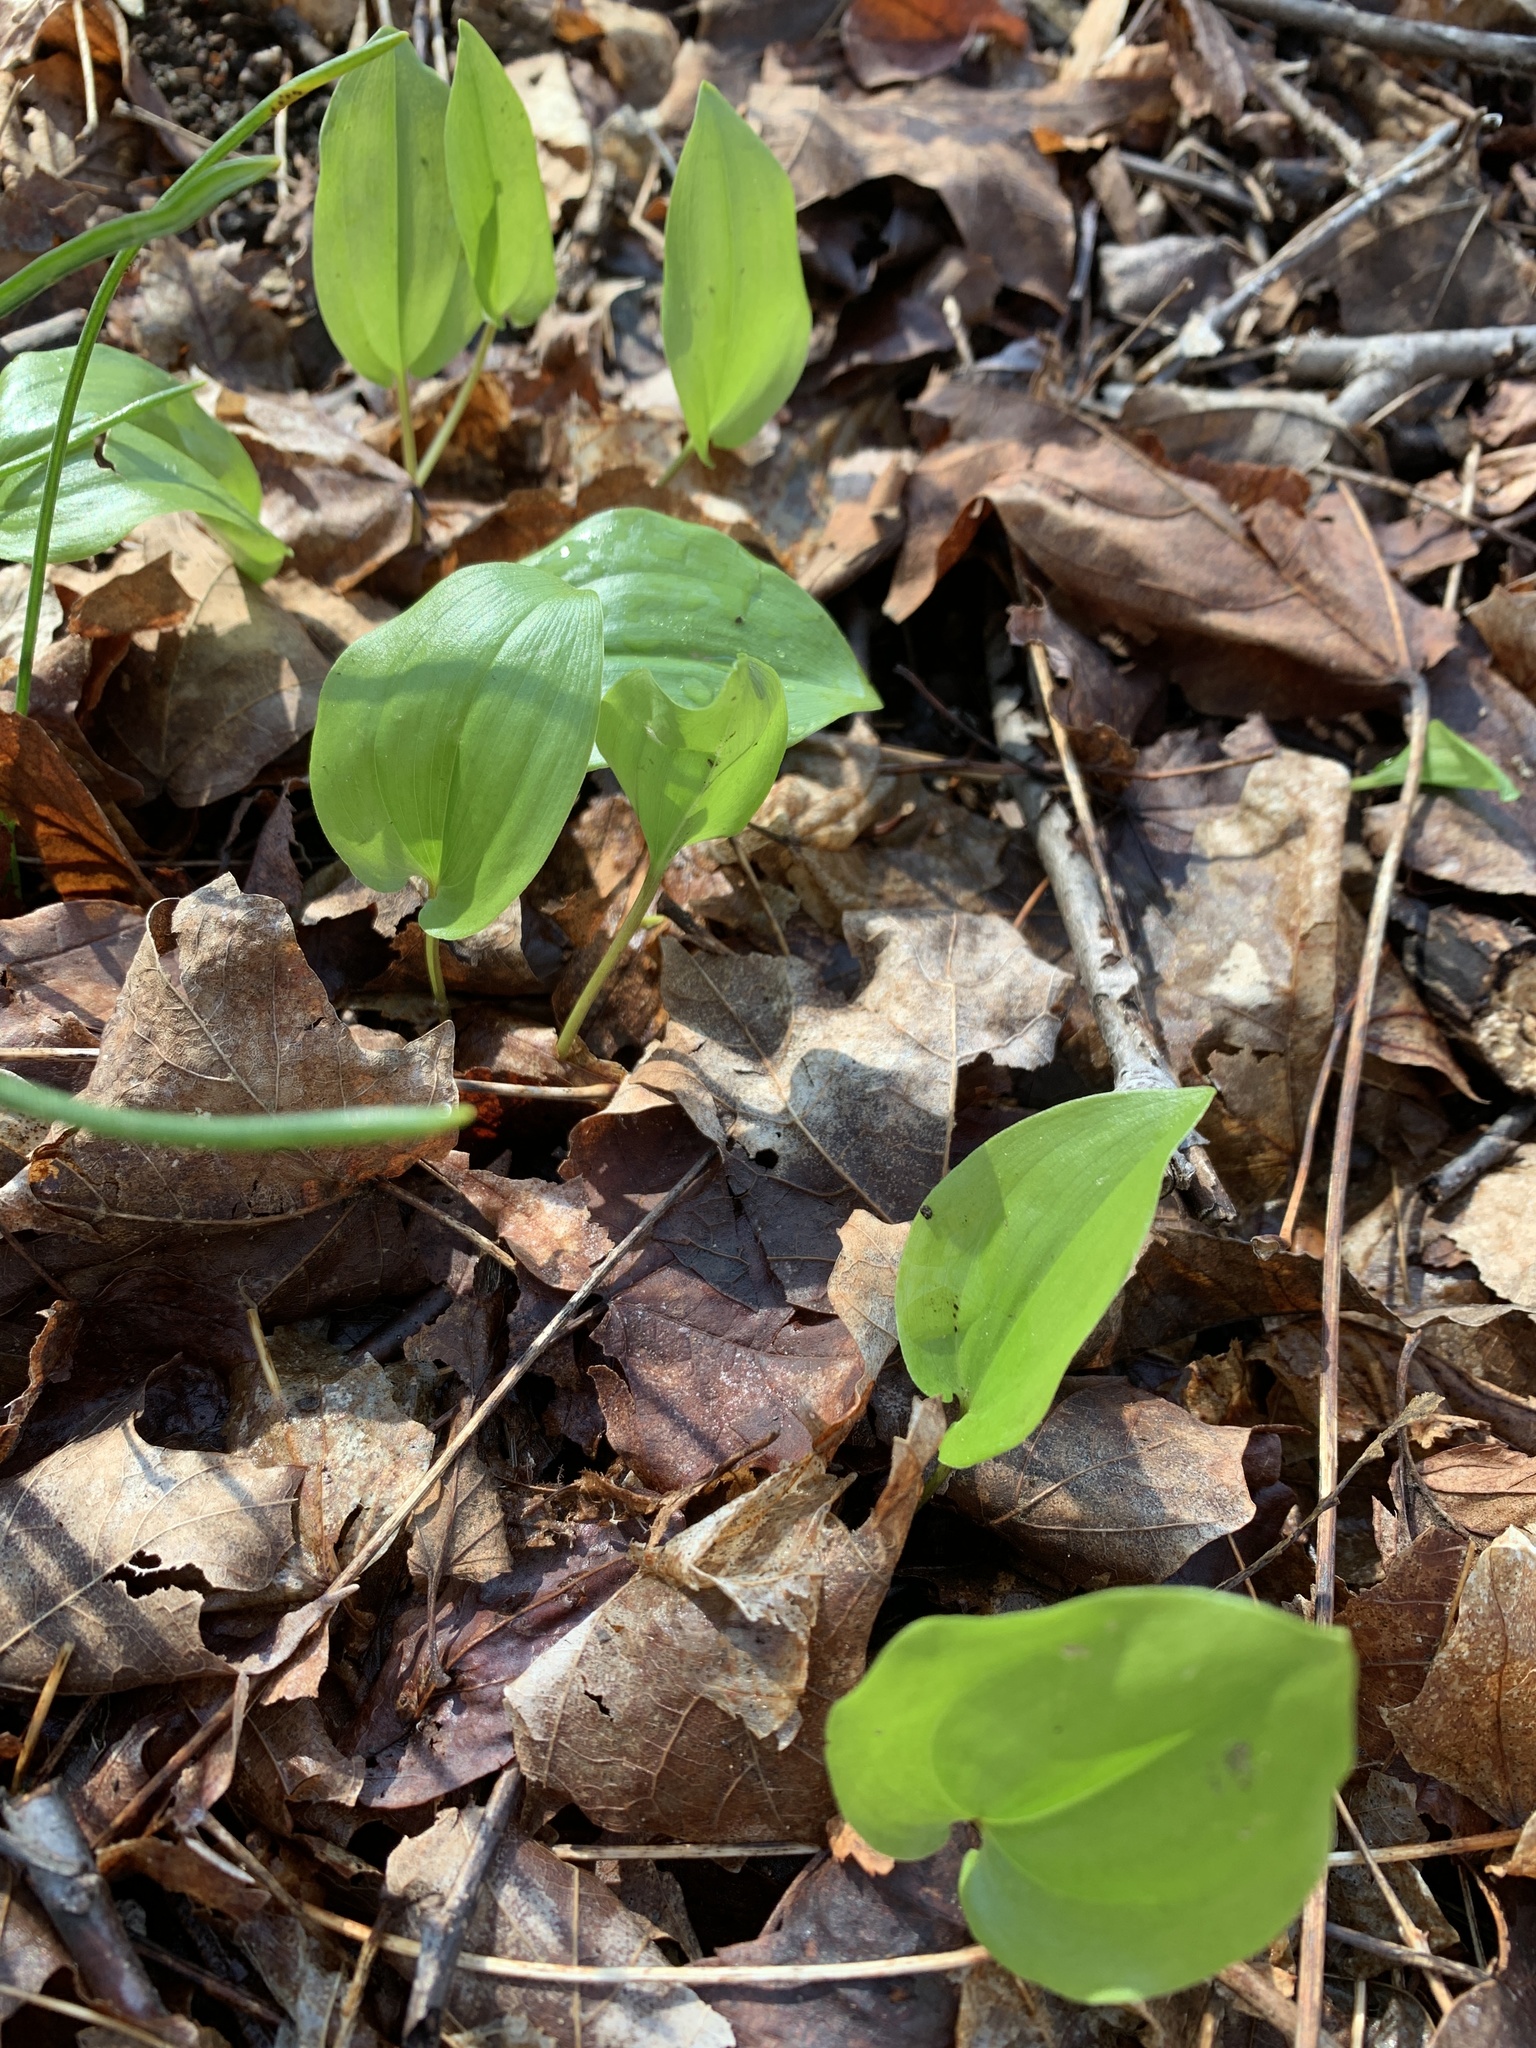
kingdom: Plantae
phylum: Tracheophyta
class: Liliopsida
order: Asparagales
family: Asparagaceae
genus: Maianthemum
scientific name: Maianthemum canadense
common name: False lily-of-the-valley
